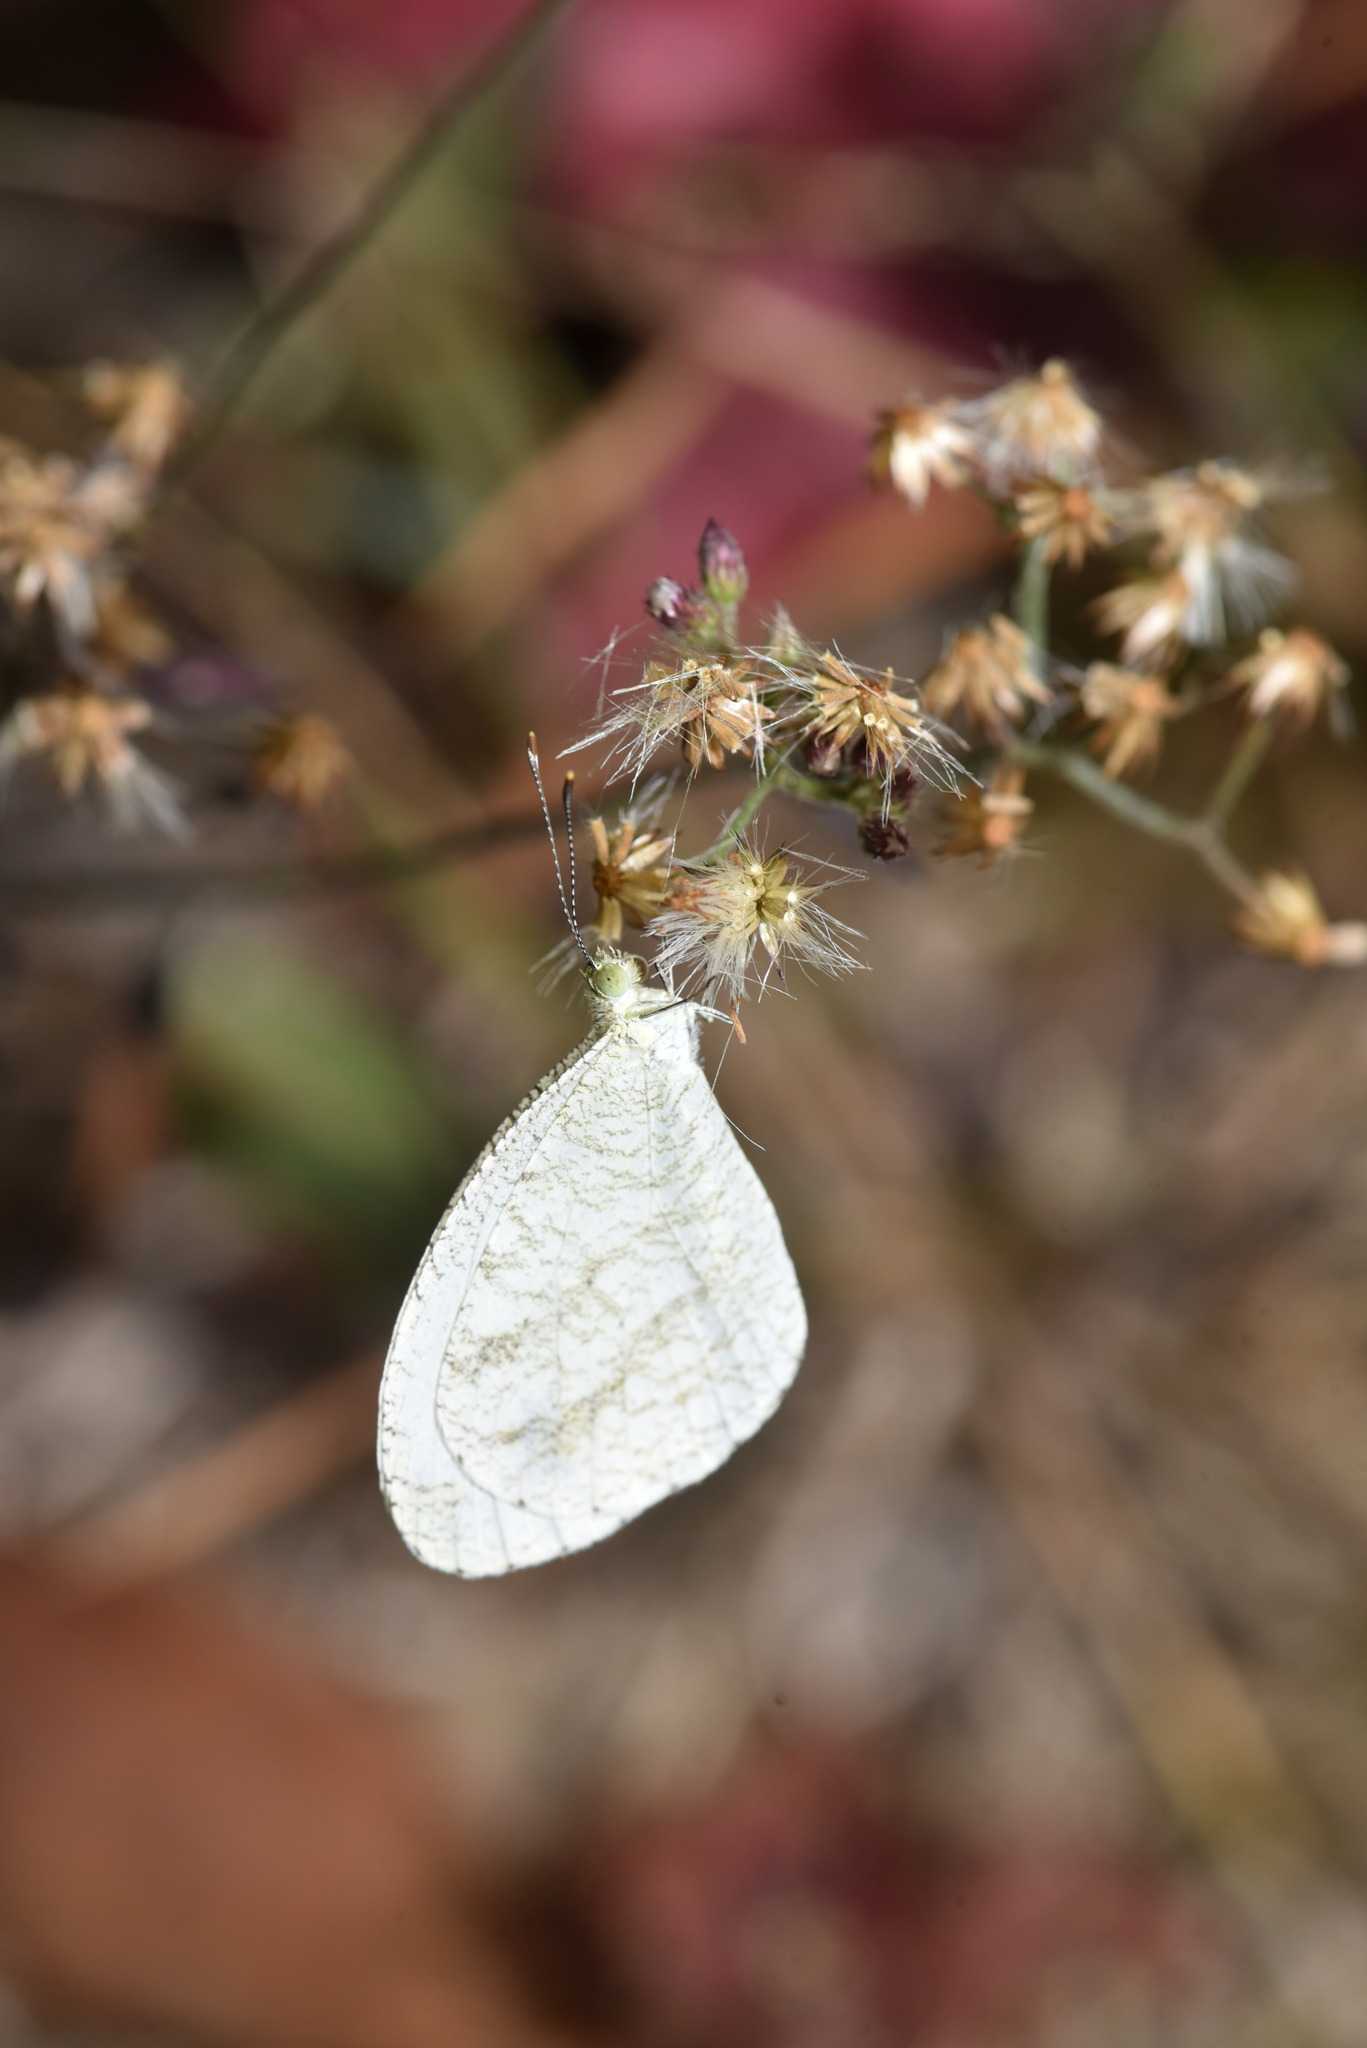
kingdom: Animalia
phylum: Arthropoda
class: Insecta
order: Lepidoptera
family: Pieridae
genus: Leptosia
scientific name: Leptosia nina
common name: Psyche
